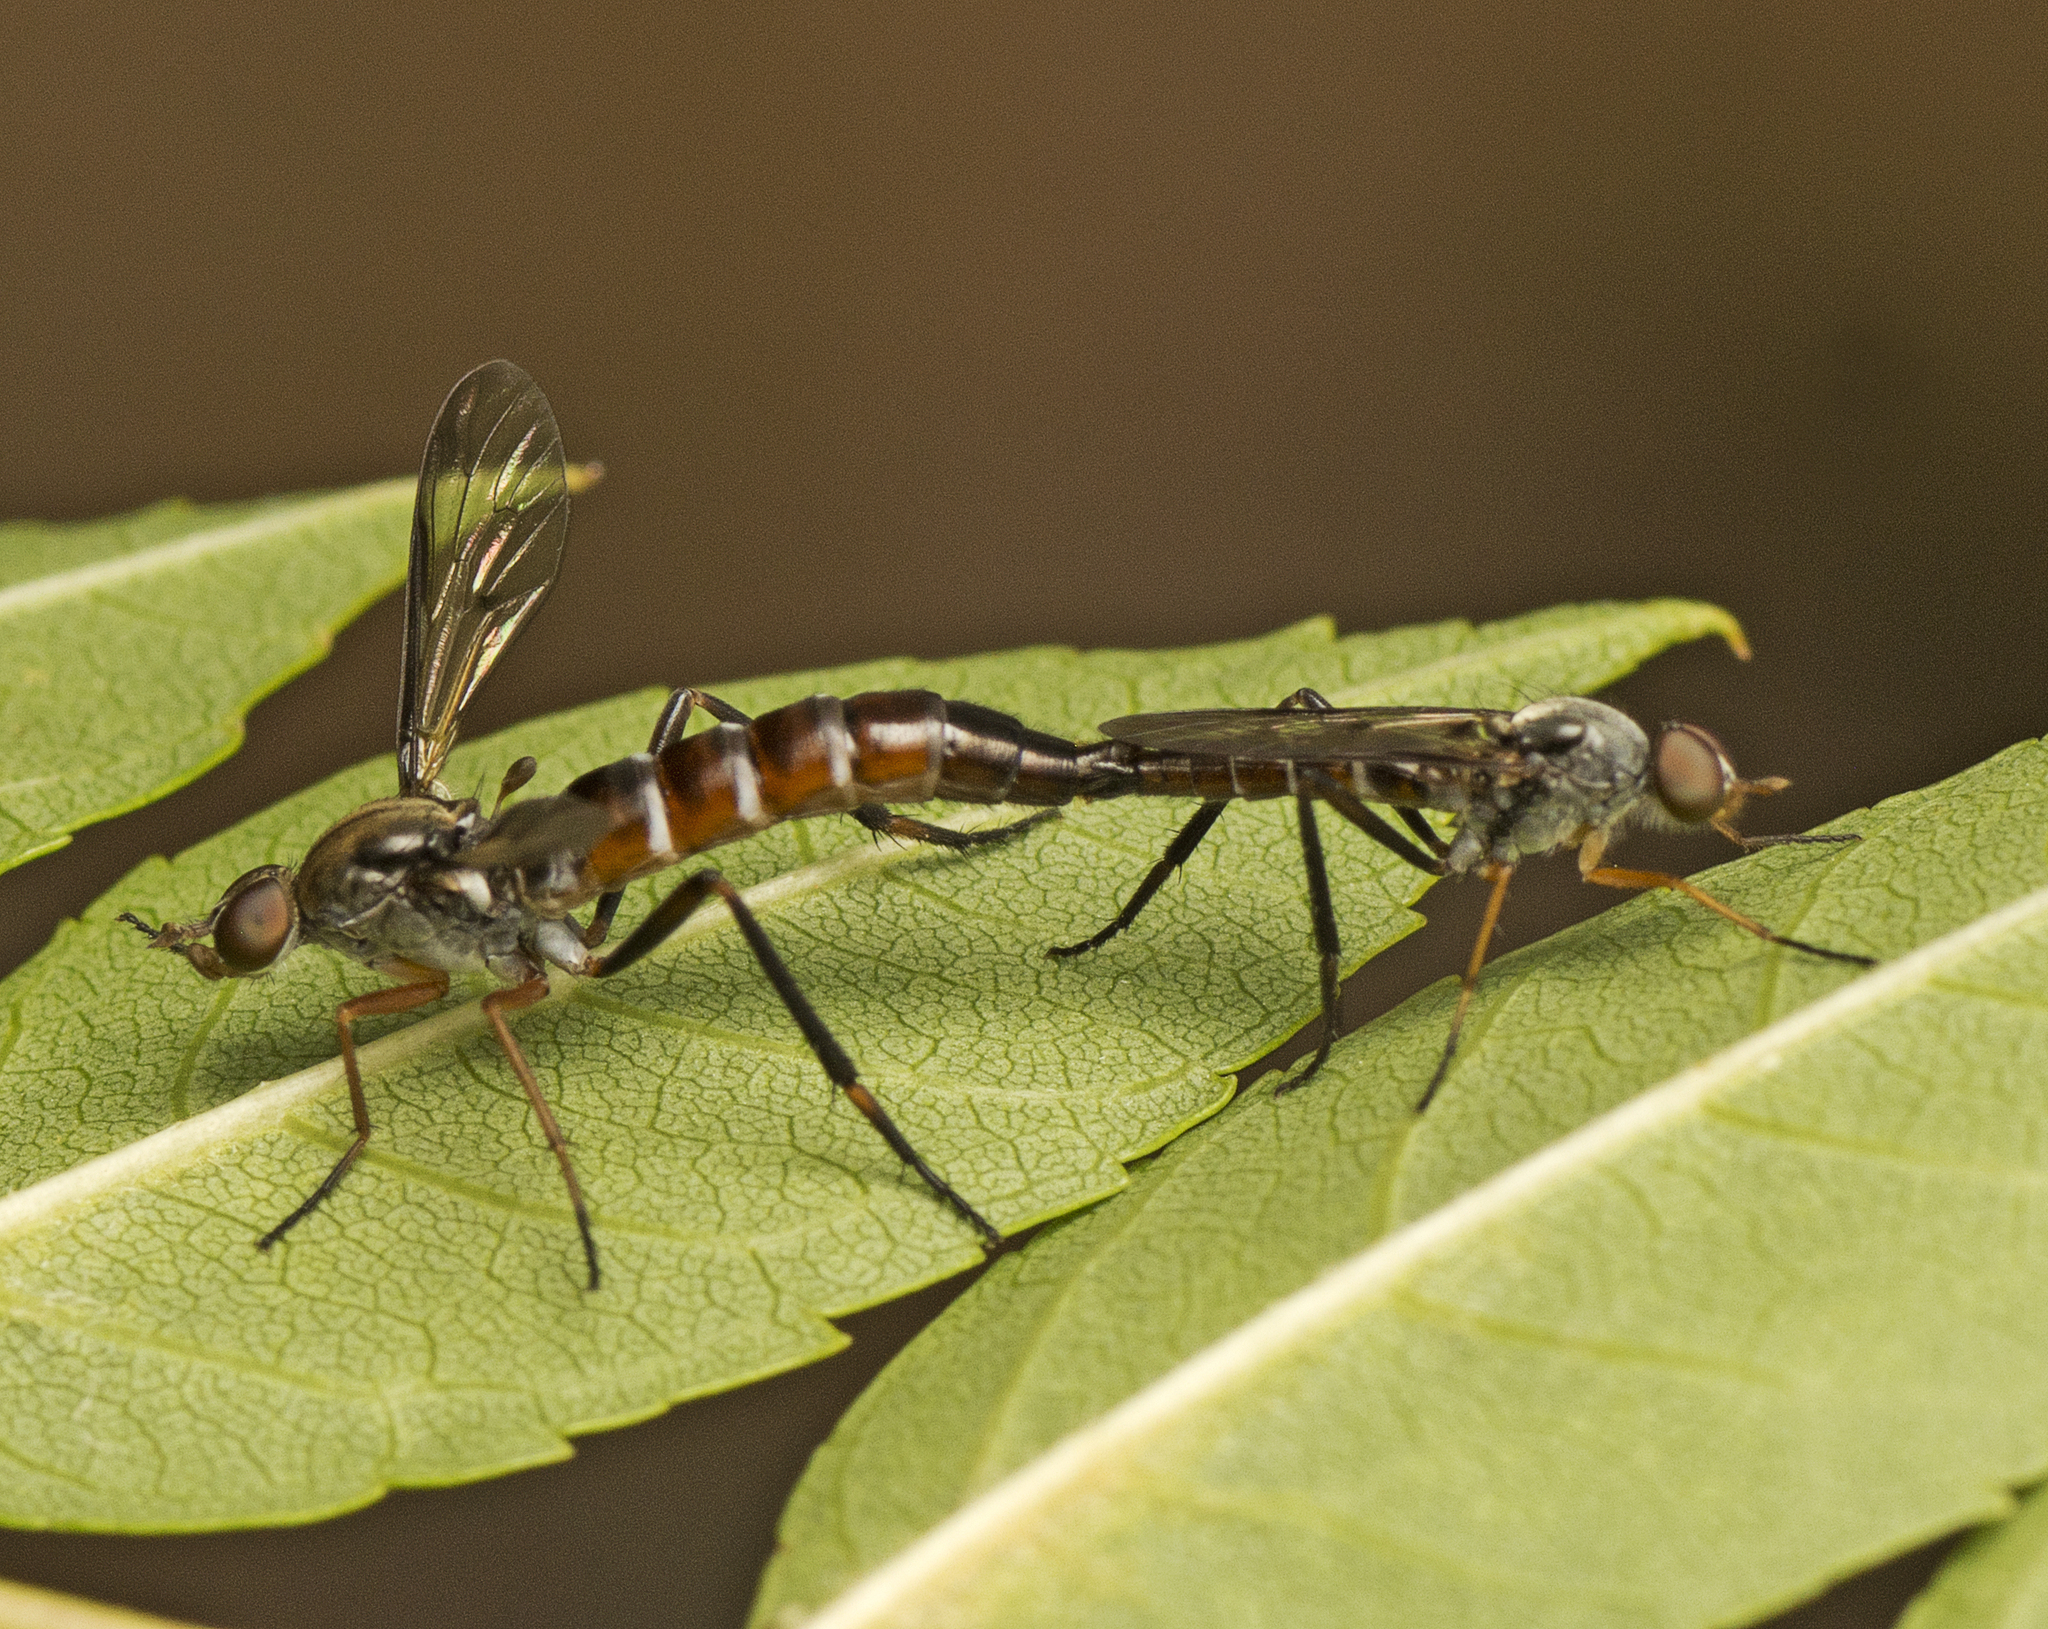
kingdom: Animalia
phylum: Arthropoda
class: Insecta
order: Diptera
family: Therevidae
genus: Taenogerella
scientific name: Taenogerella elizabethae
